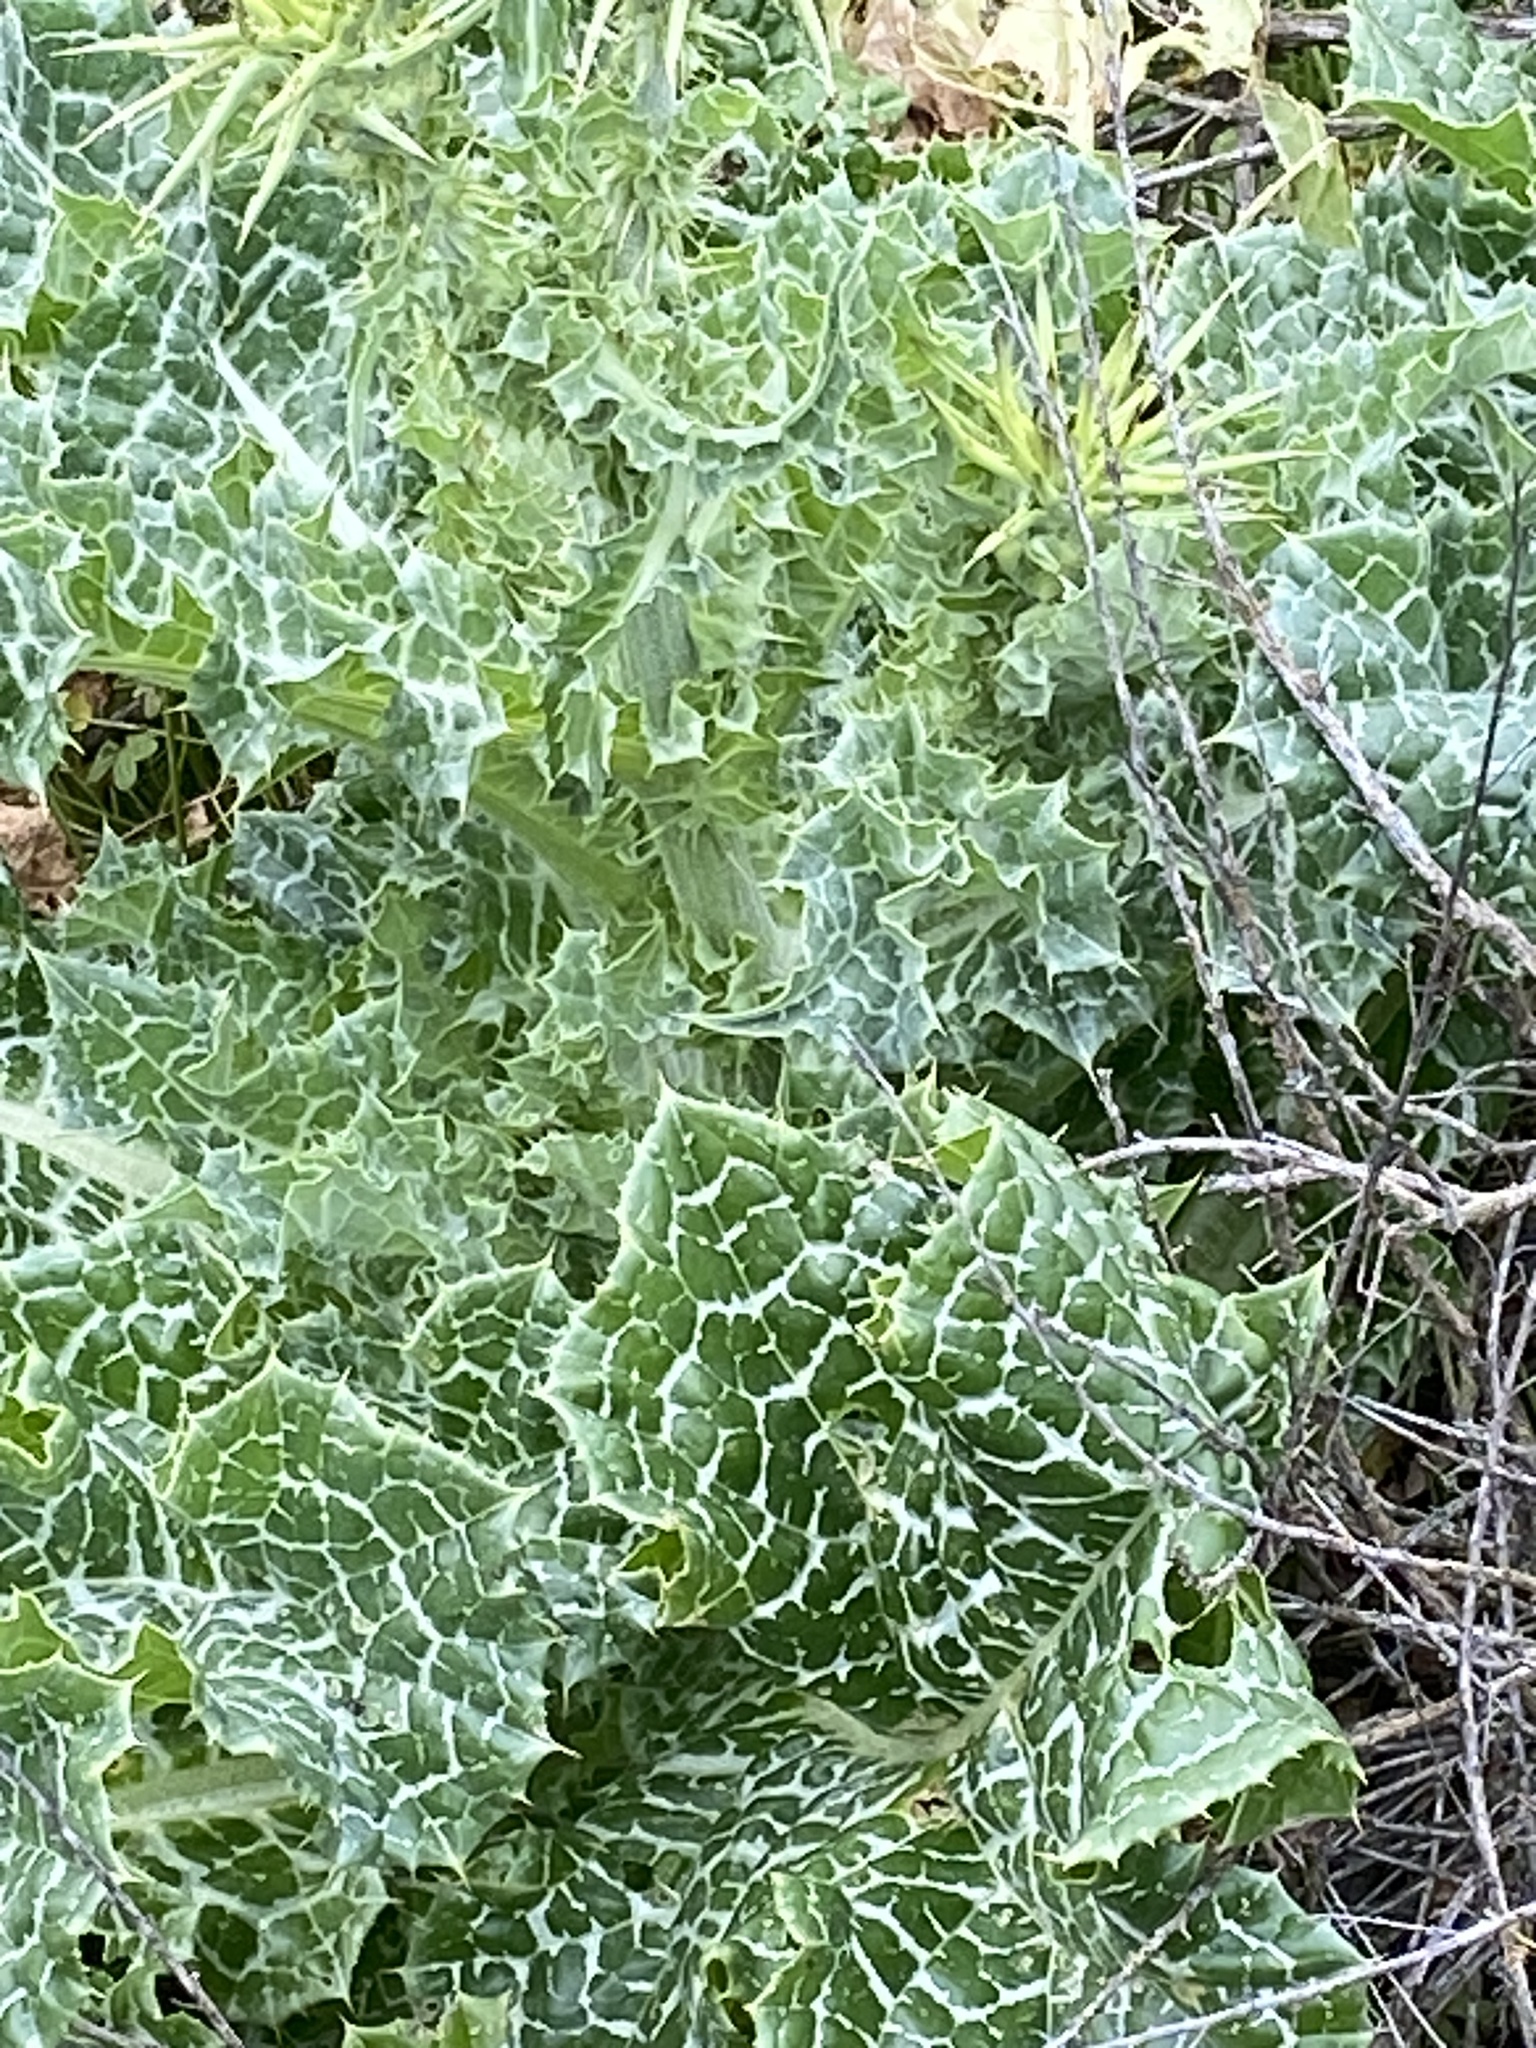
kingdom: Plantae
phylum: Tracheophyta
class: Magnoliopsida
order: Asterales
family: Asteraceae
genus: Silybum
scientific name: Silybum marianum
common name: Milk thistle
